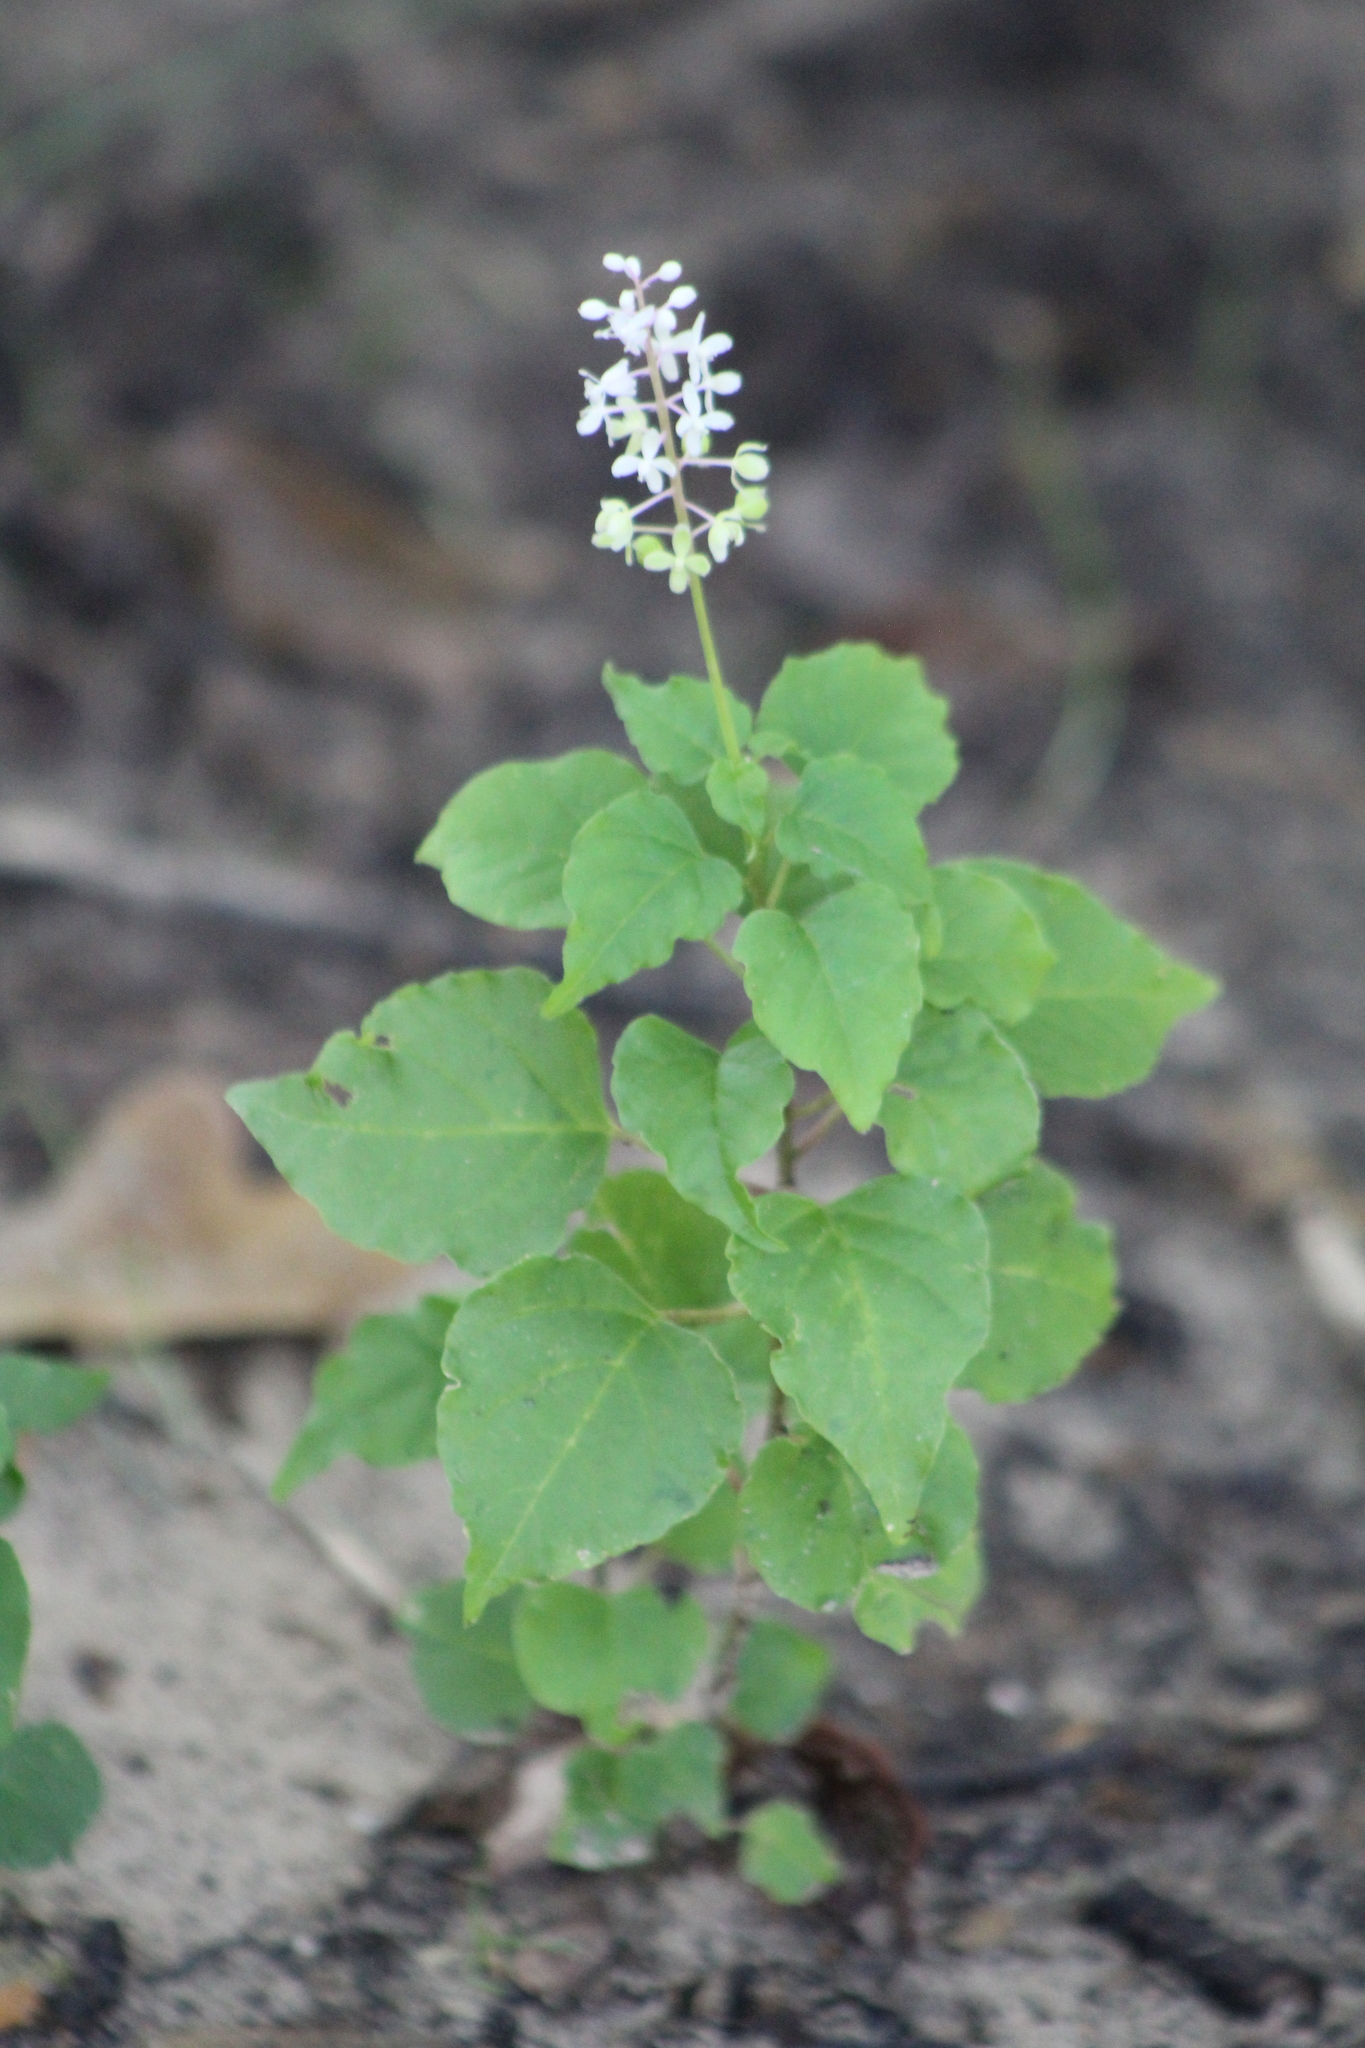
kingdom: Plantae
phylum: Tracheophyta
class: Magnoliopsida
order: Caryophyllales
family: Phytolaccaceae
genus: Rivina
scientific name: Rivina humilis
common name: Rougeplant
